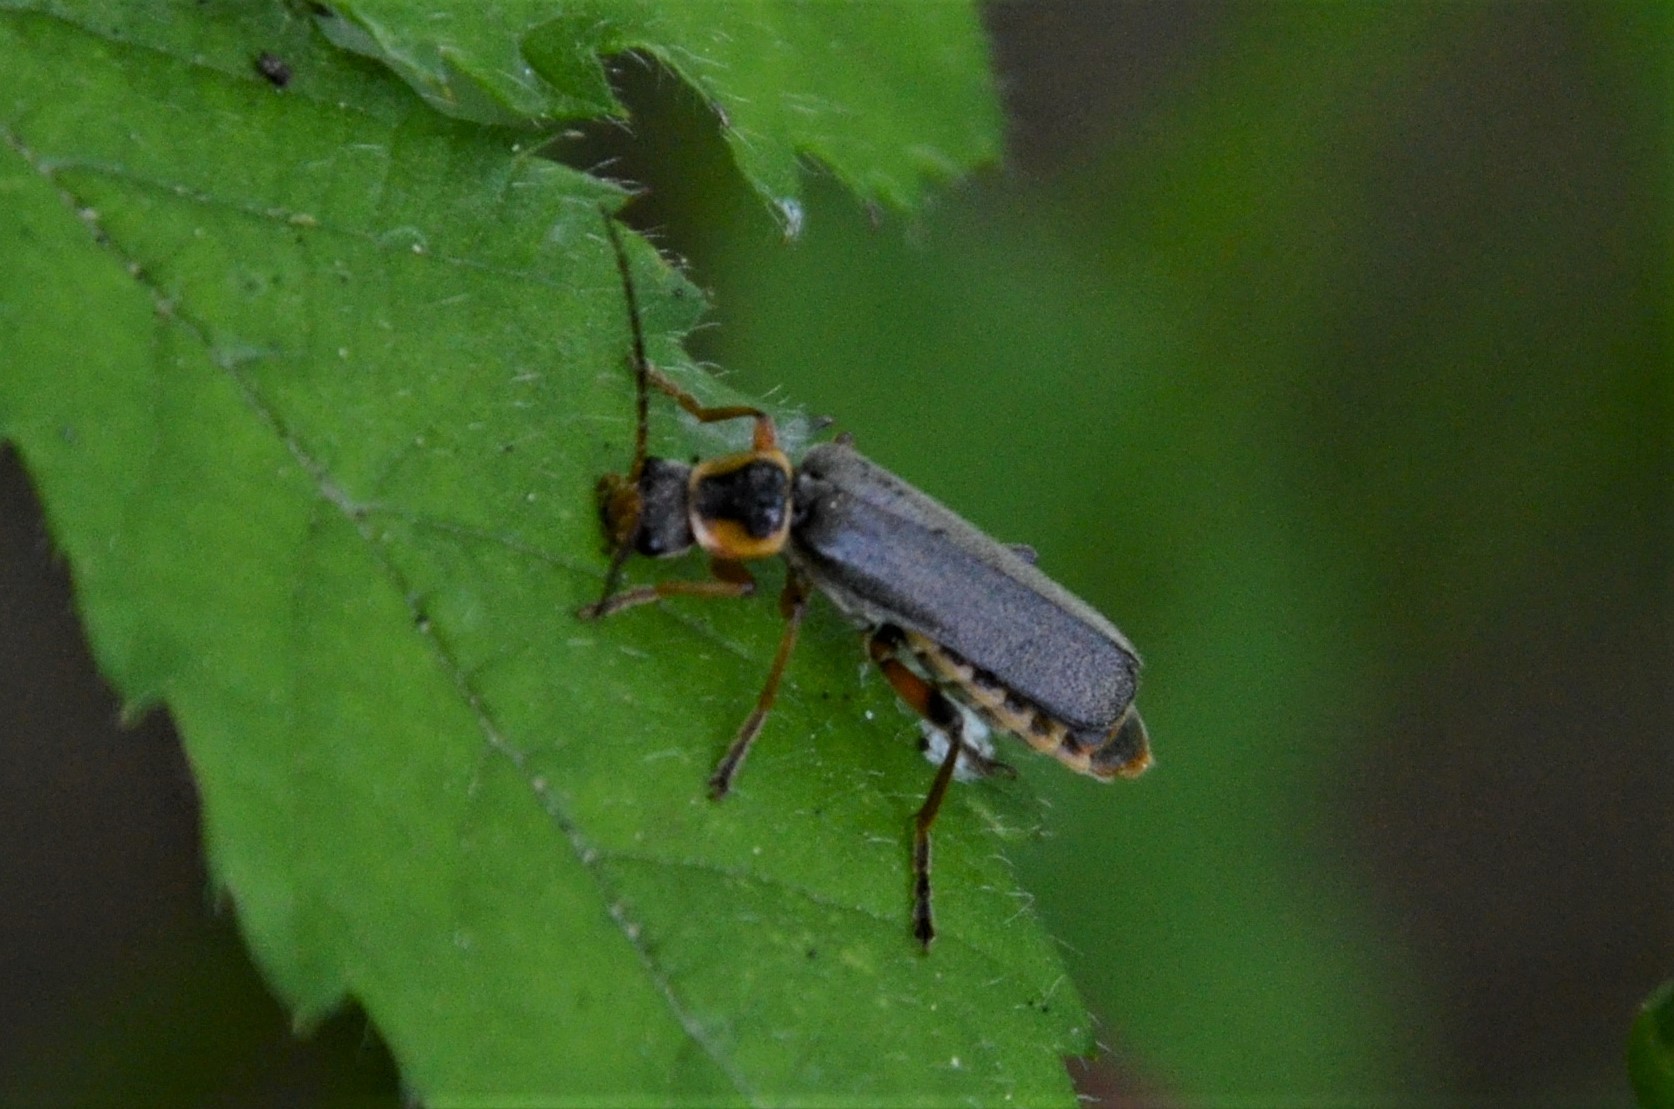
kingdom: Animalia
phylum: Arthropoda
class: Insecta
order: Coleoptera
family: Cantharidae
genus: Cantharis
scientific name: Cantharis nigricans
